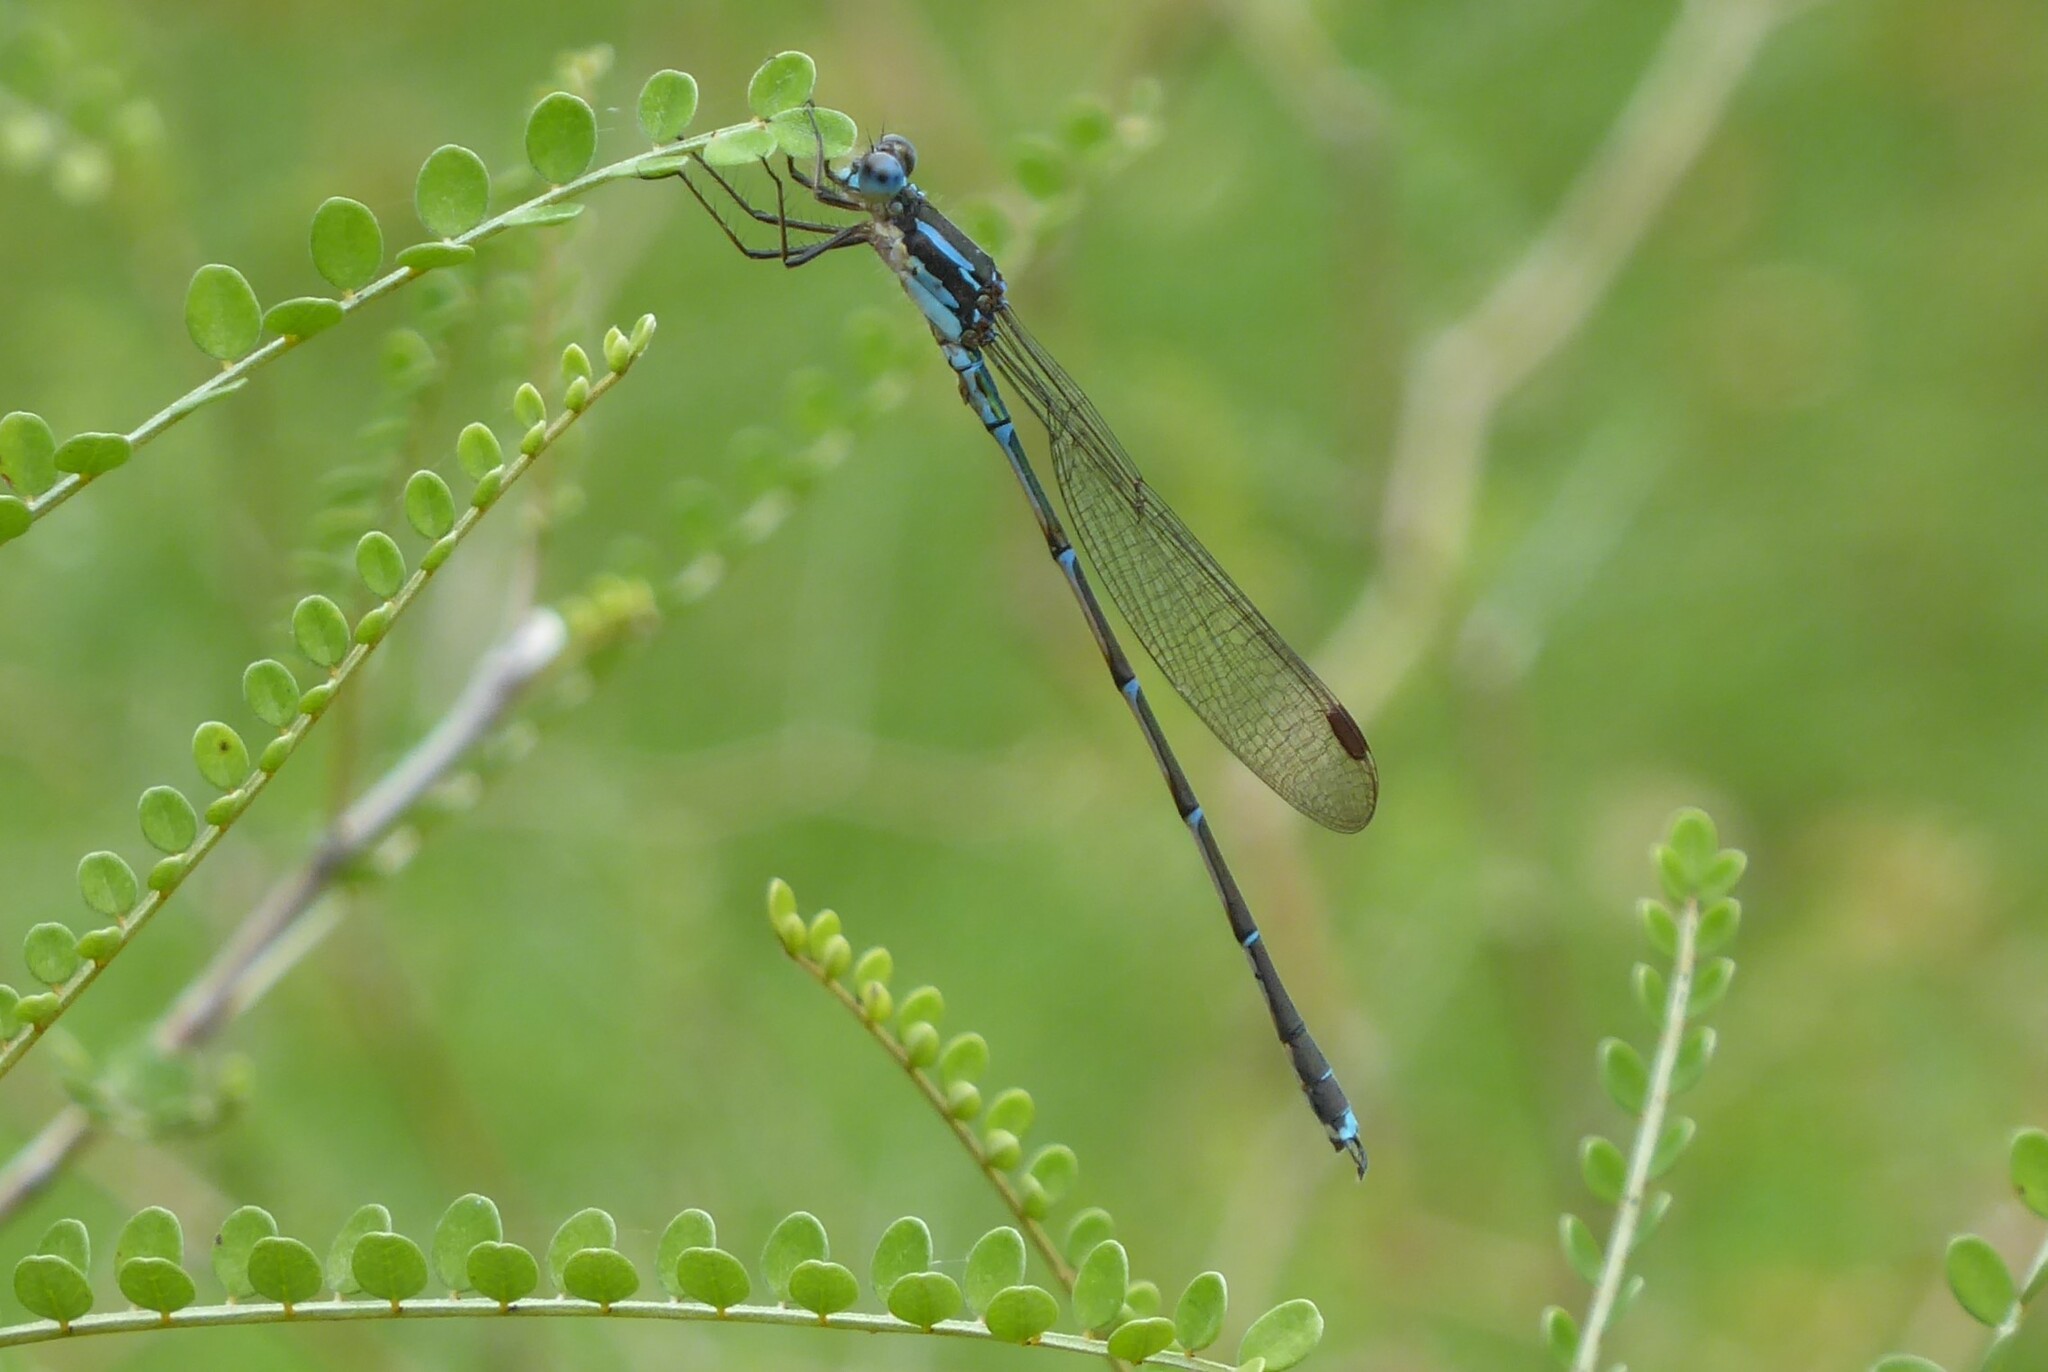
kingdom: Animalia
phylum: Arthropoda
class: Insecta
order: Odonata
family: Lestidae
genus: Austrolestes
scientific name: Austrolestes colensonis
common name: Blue damselfly
